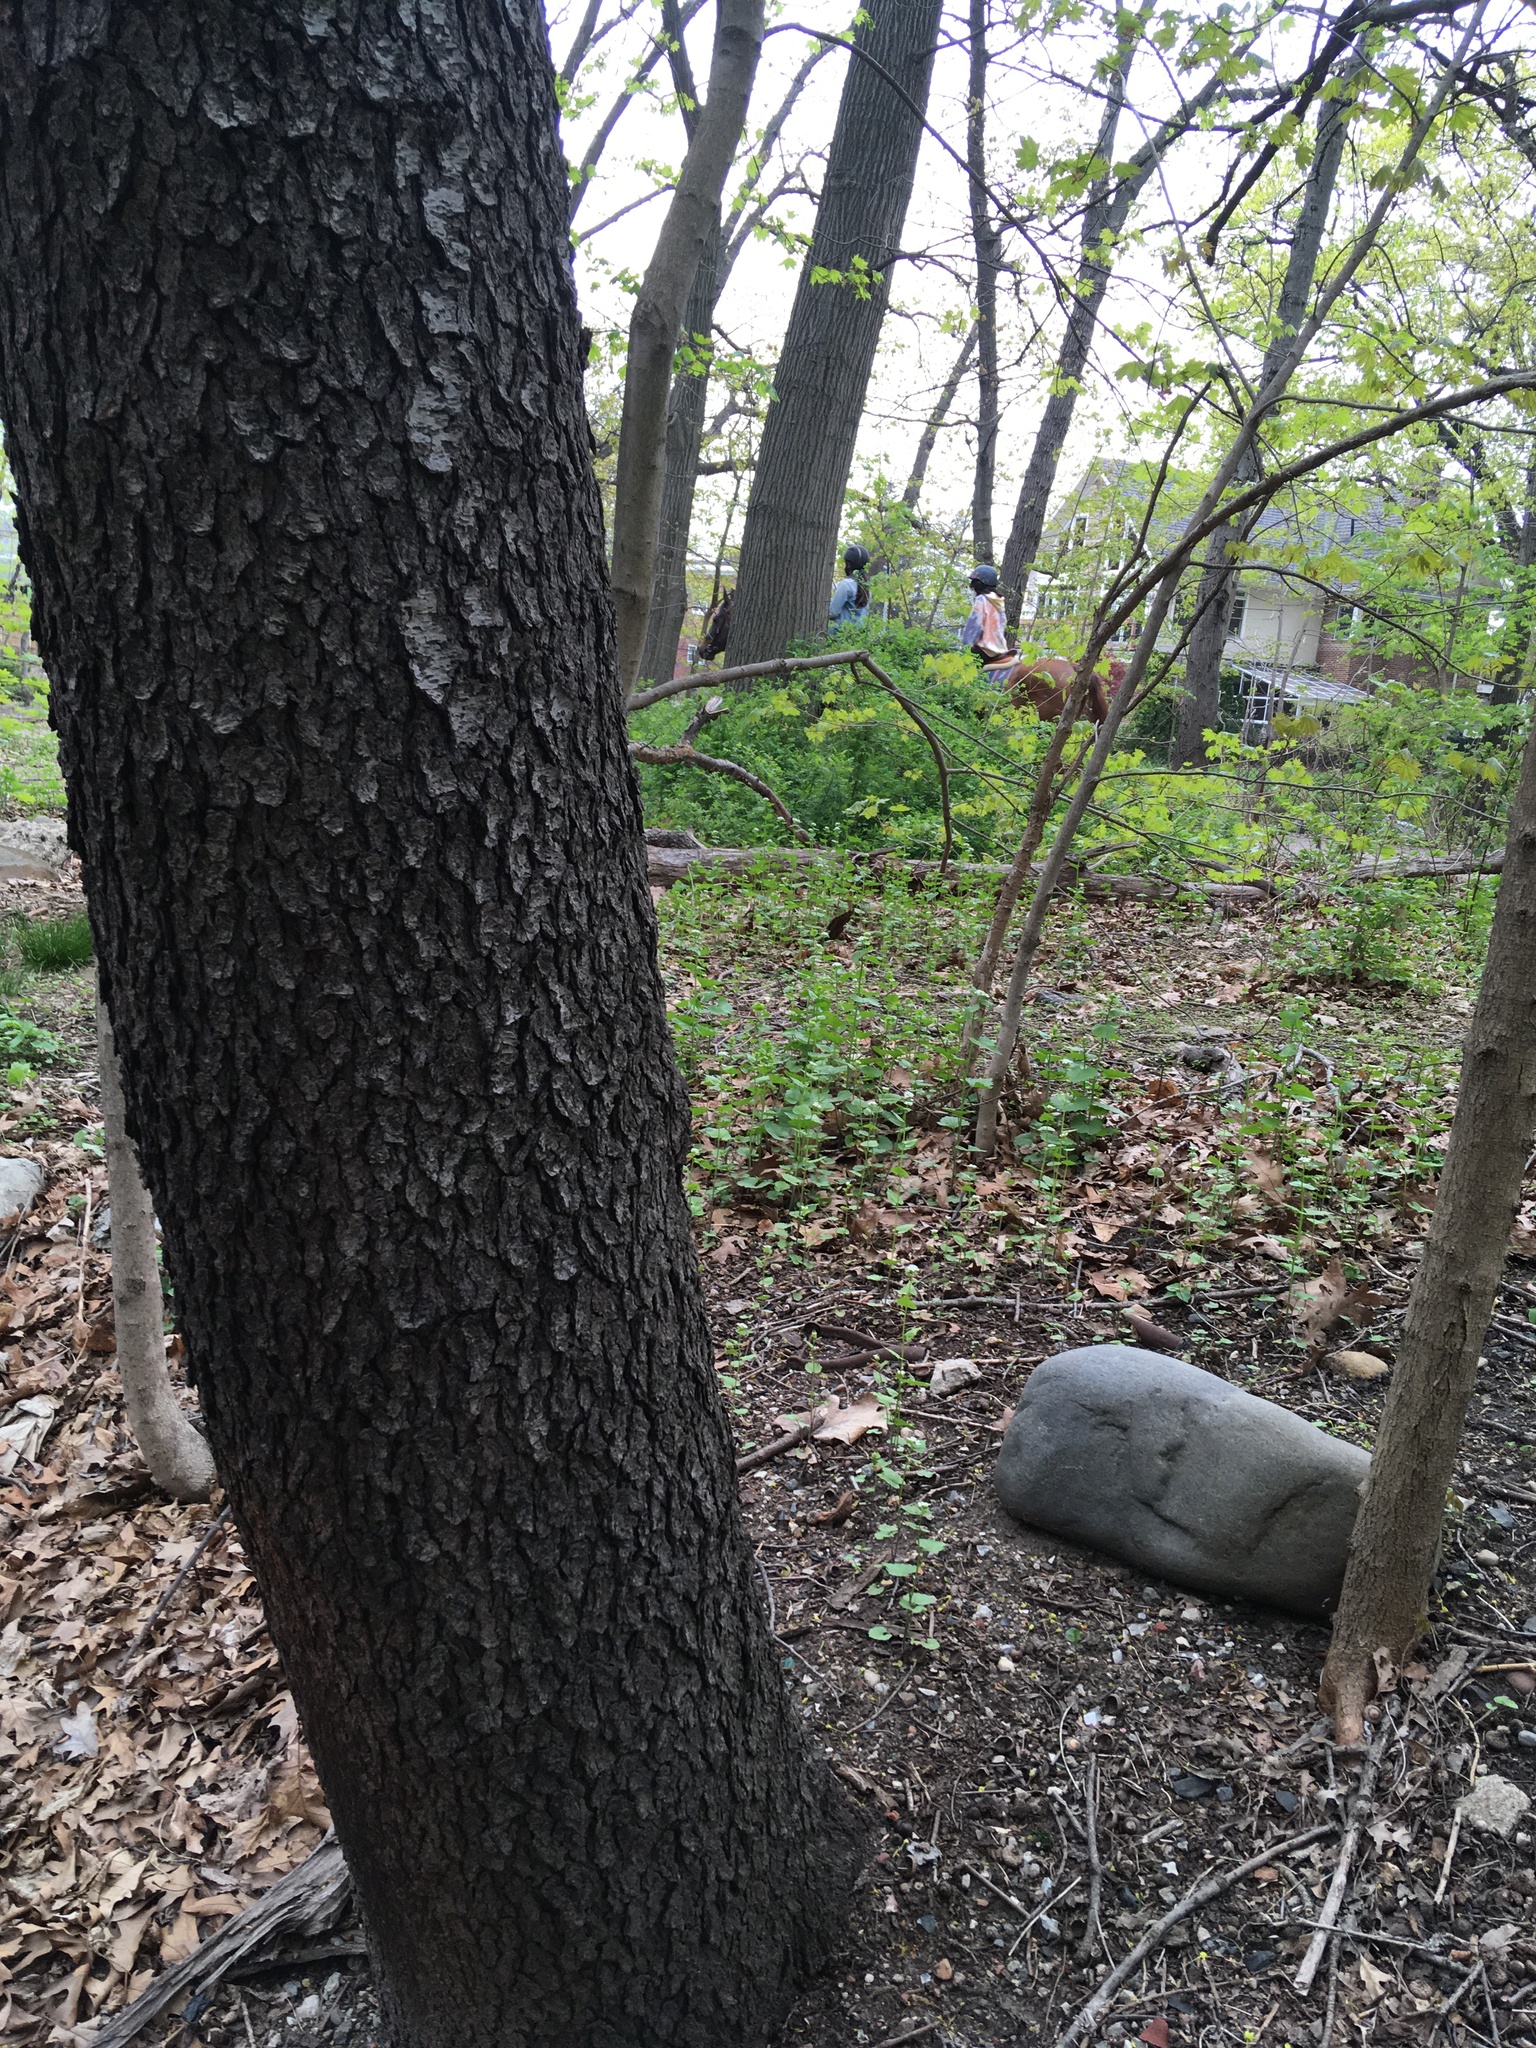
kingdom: Plantae
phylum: Tracheophyta
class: Magnoliopsida
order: Rosales
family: Rosaceae
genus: Prunus
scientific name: Prunus serotina
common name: Black cherry
